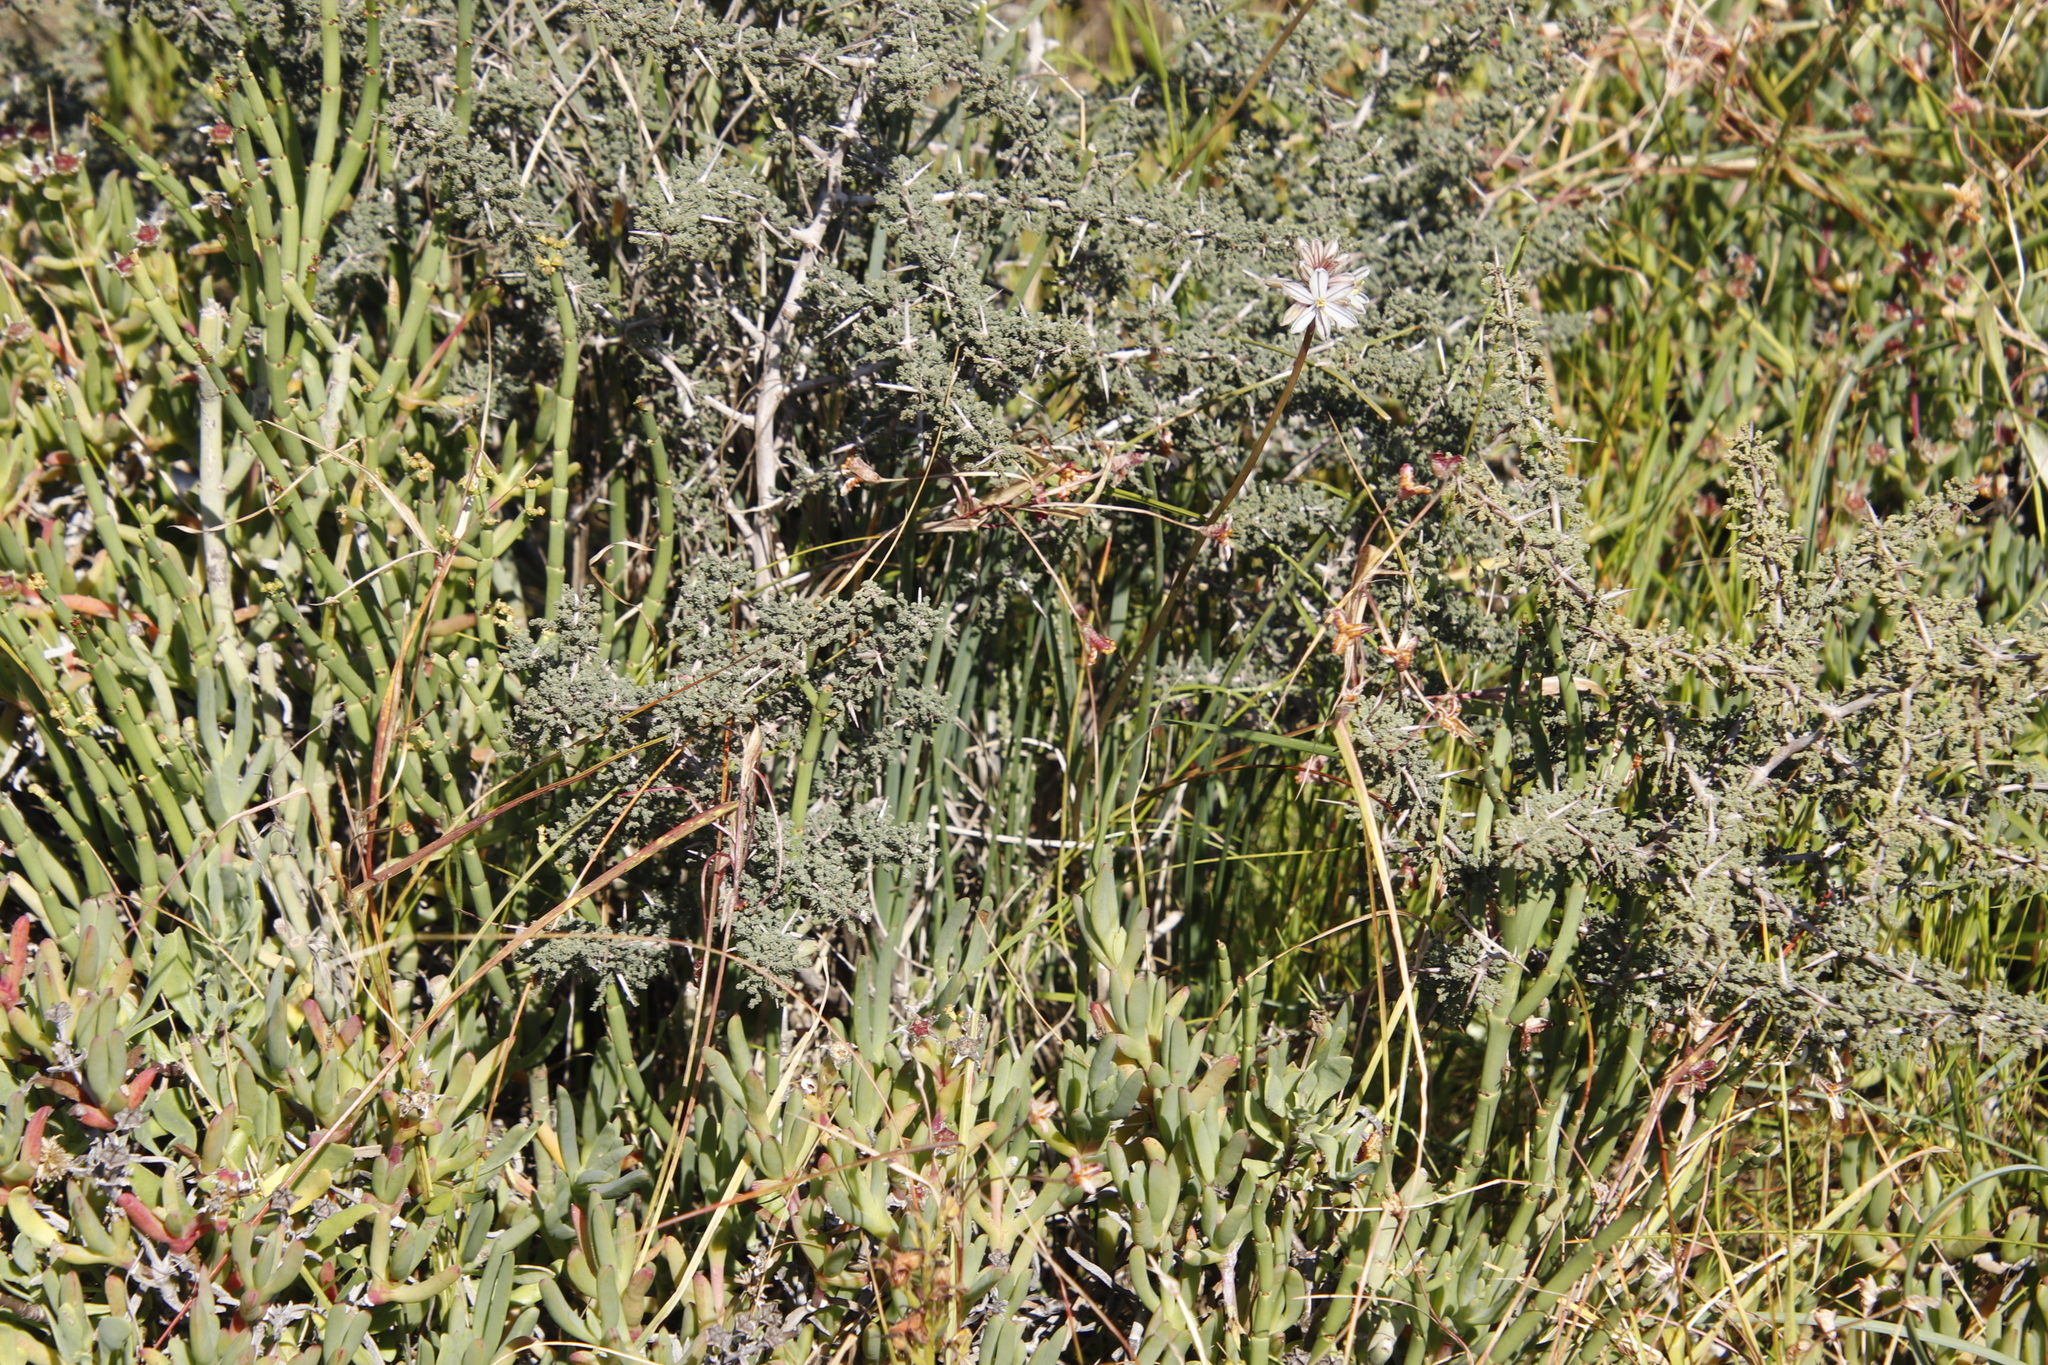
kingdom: Plantae
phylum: Tracheophyta
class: Liliopsida
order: Asparagales
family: Asparagaceae
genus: Asparagus
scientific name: Asparagus capensis
